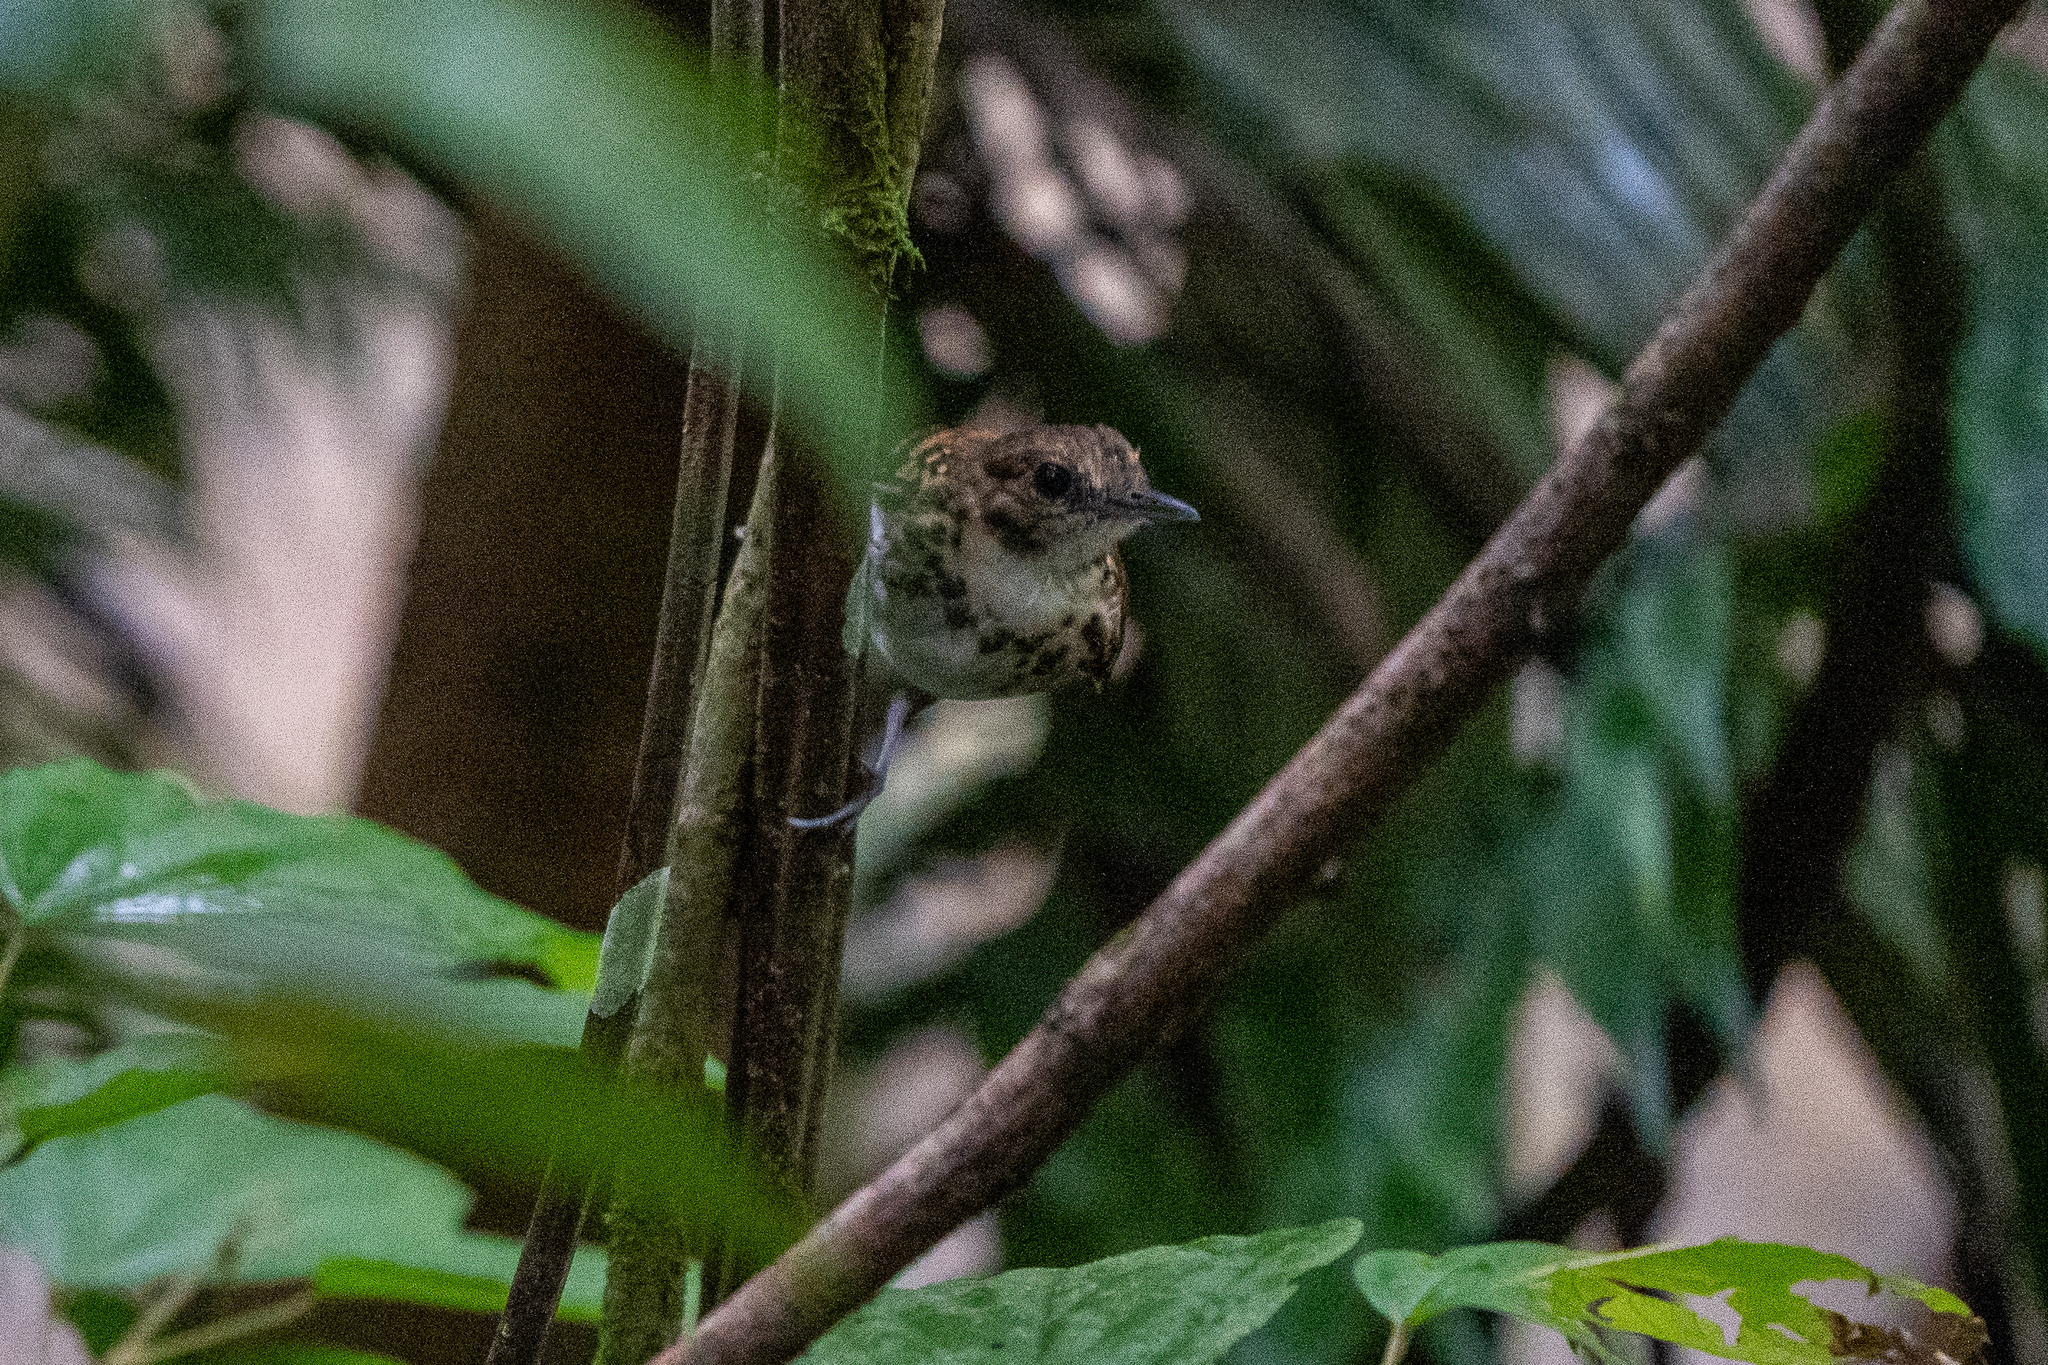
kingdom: Animalia
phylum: Chordata
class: Aves
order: Passeriformes
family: Thamnophilidae
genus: Hylophylax
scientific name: Hylophylax naevioides
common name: Spotted antbird
